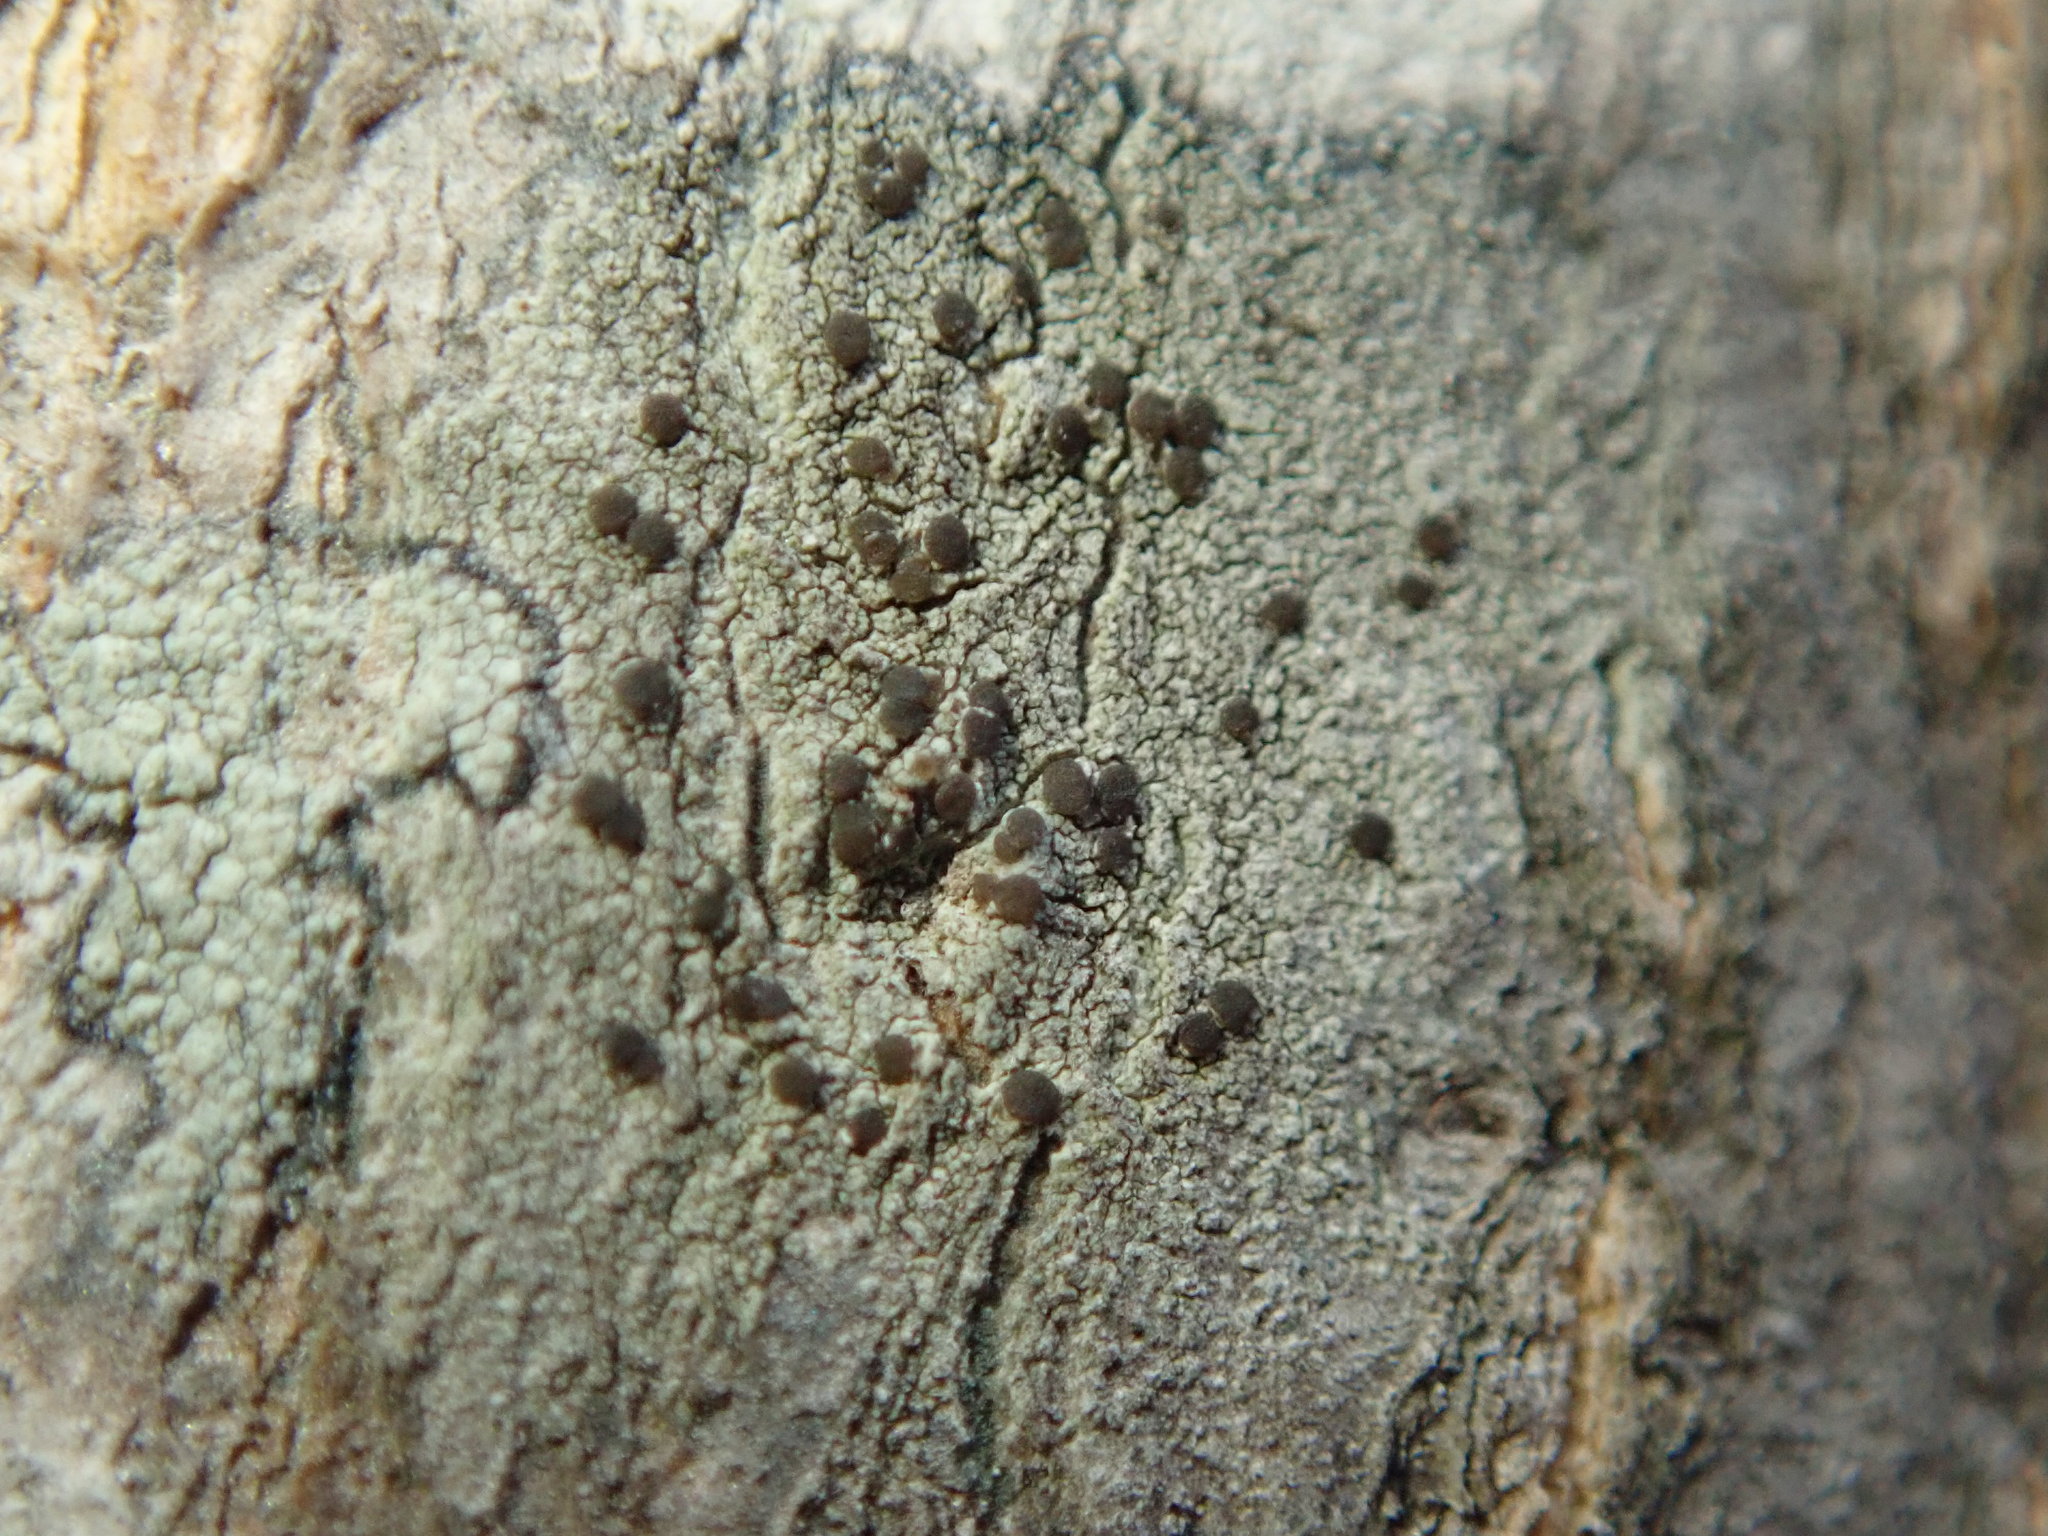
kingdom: Fungi
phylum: Ascomycota
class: Lecanoromycetes
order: Lecanorales
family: Lecanoraceae
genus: Traponora
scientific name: Traponora varians
